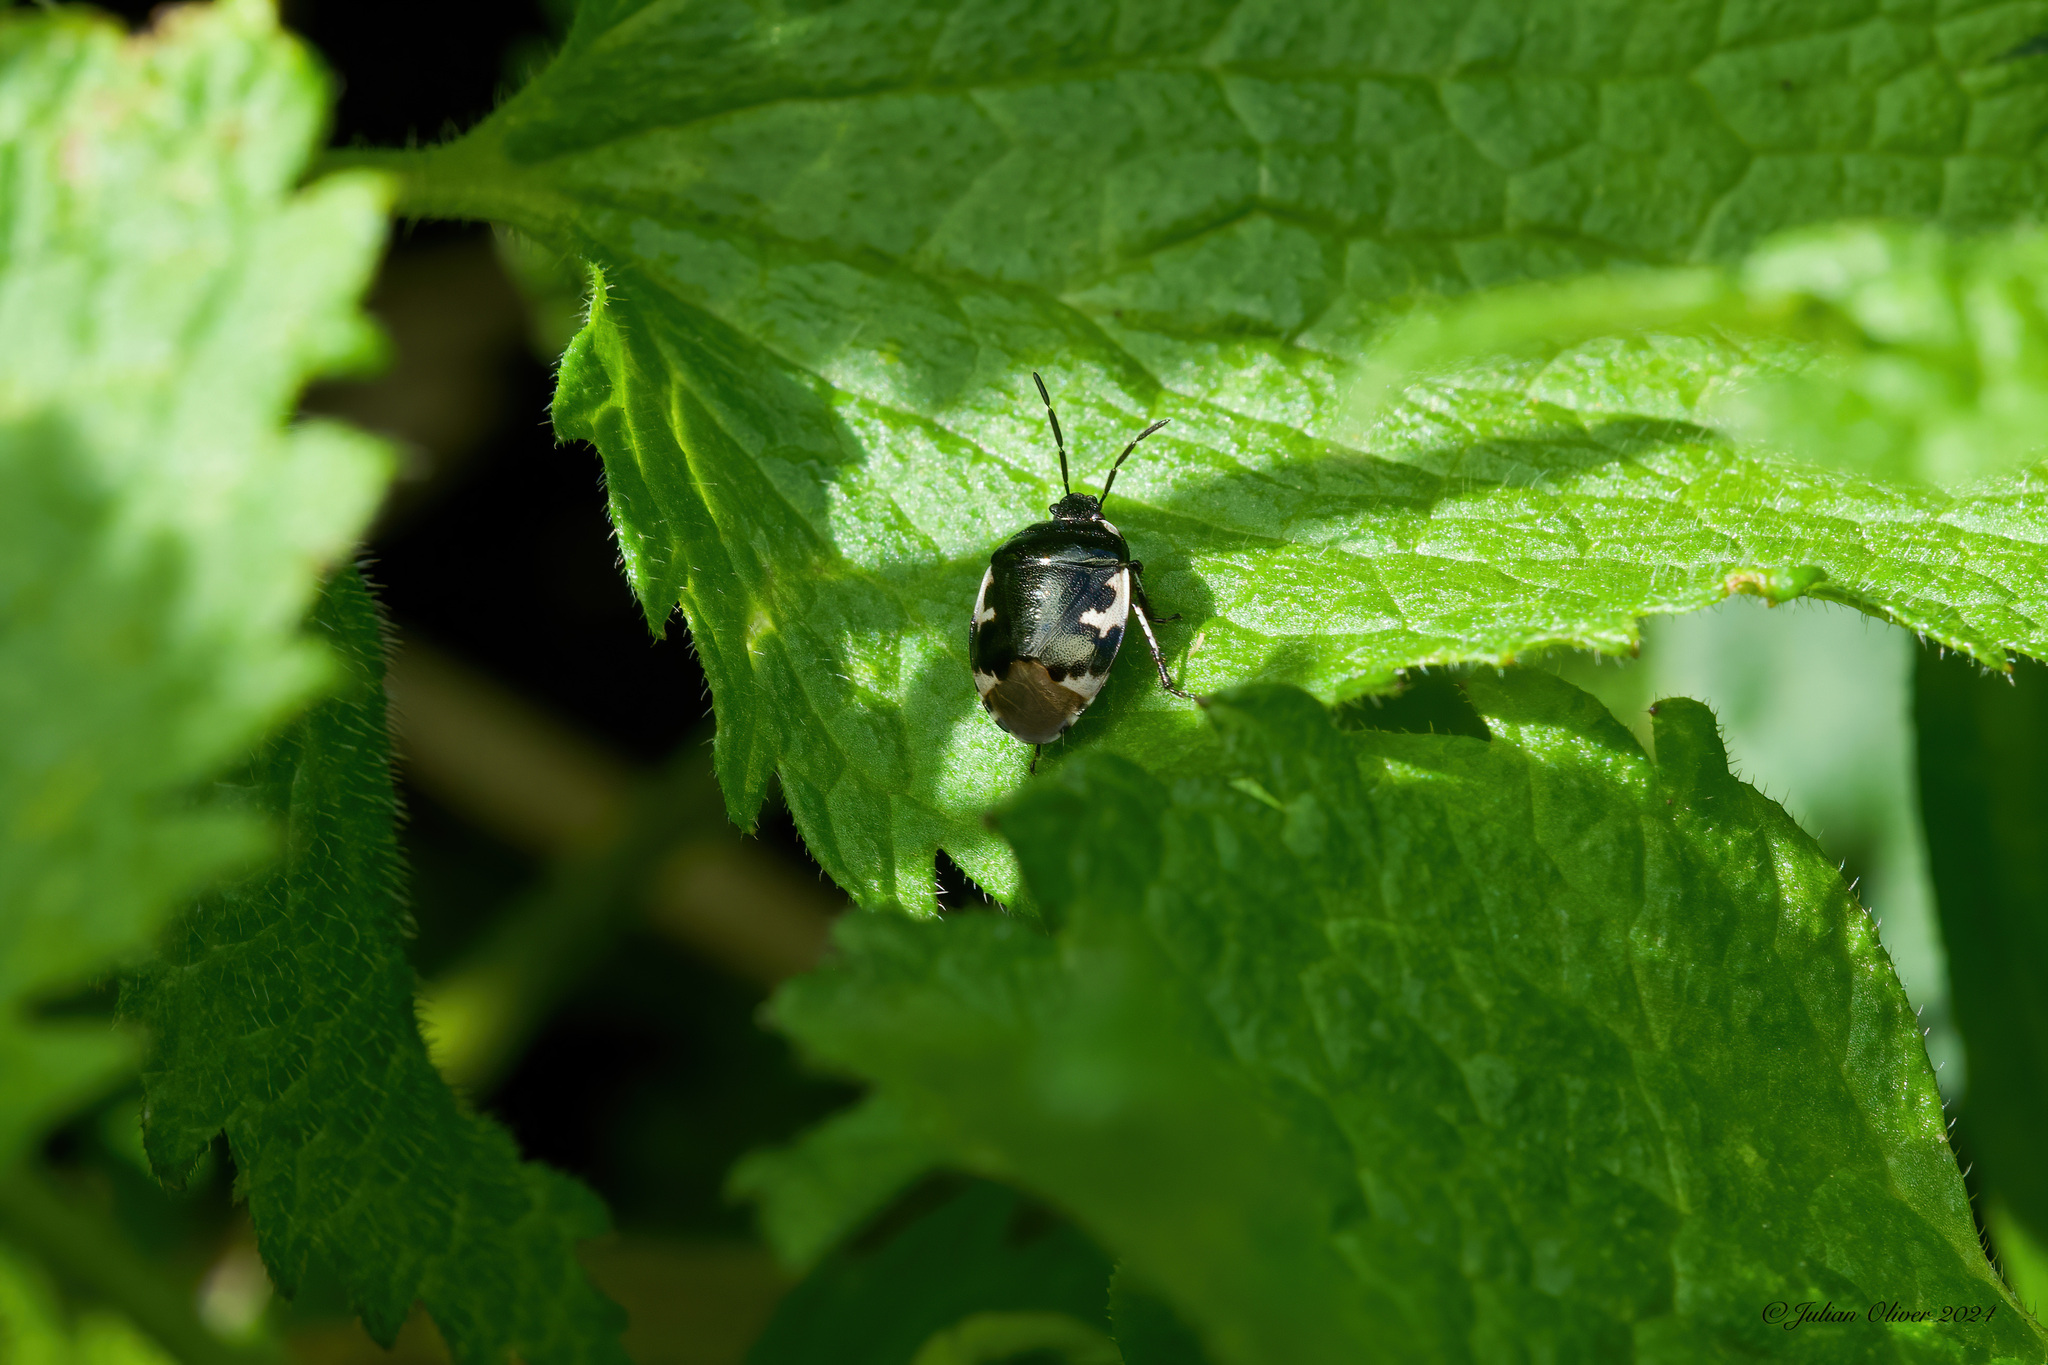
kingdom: Animalia
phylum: Arthropoda
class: Insecta
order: Hemiptera
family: Cydnidae
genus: Tritomegas
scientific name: Tritomegas bicolor
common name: Pied shieldbug
